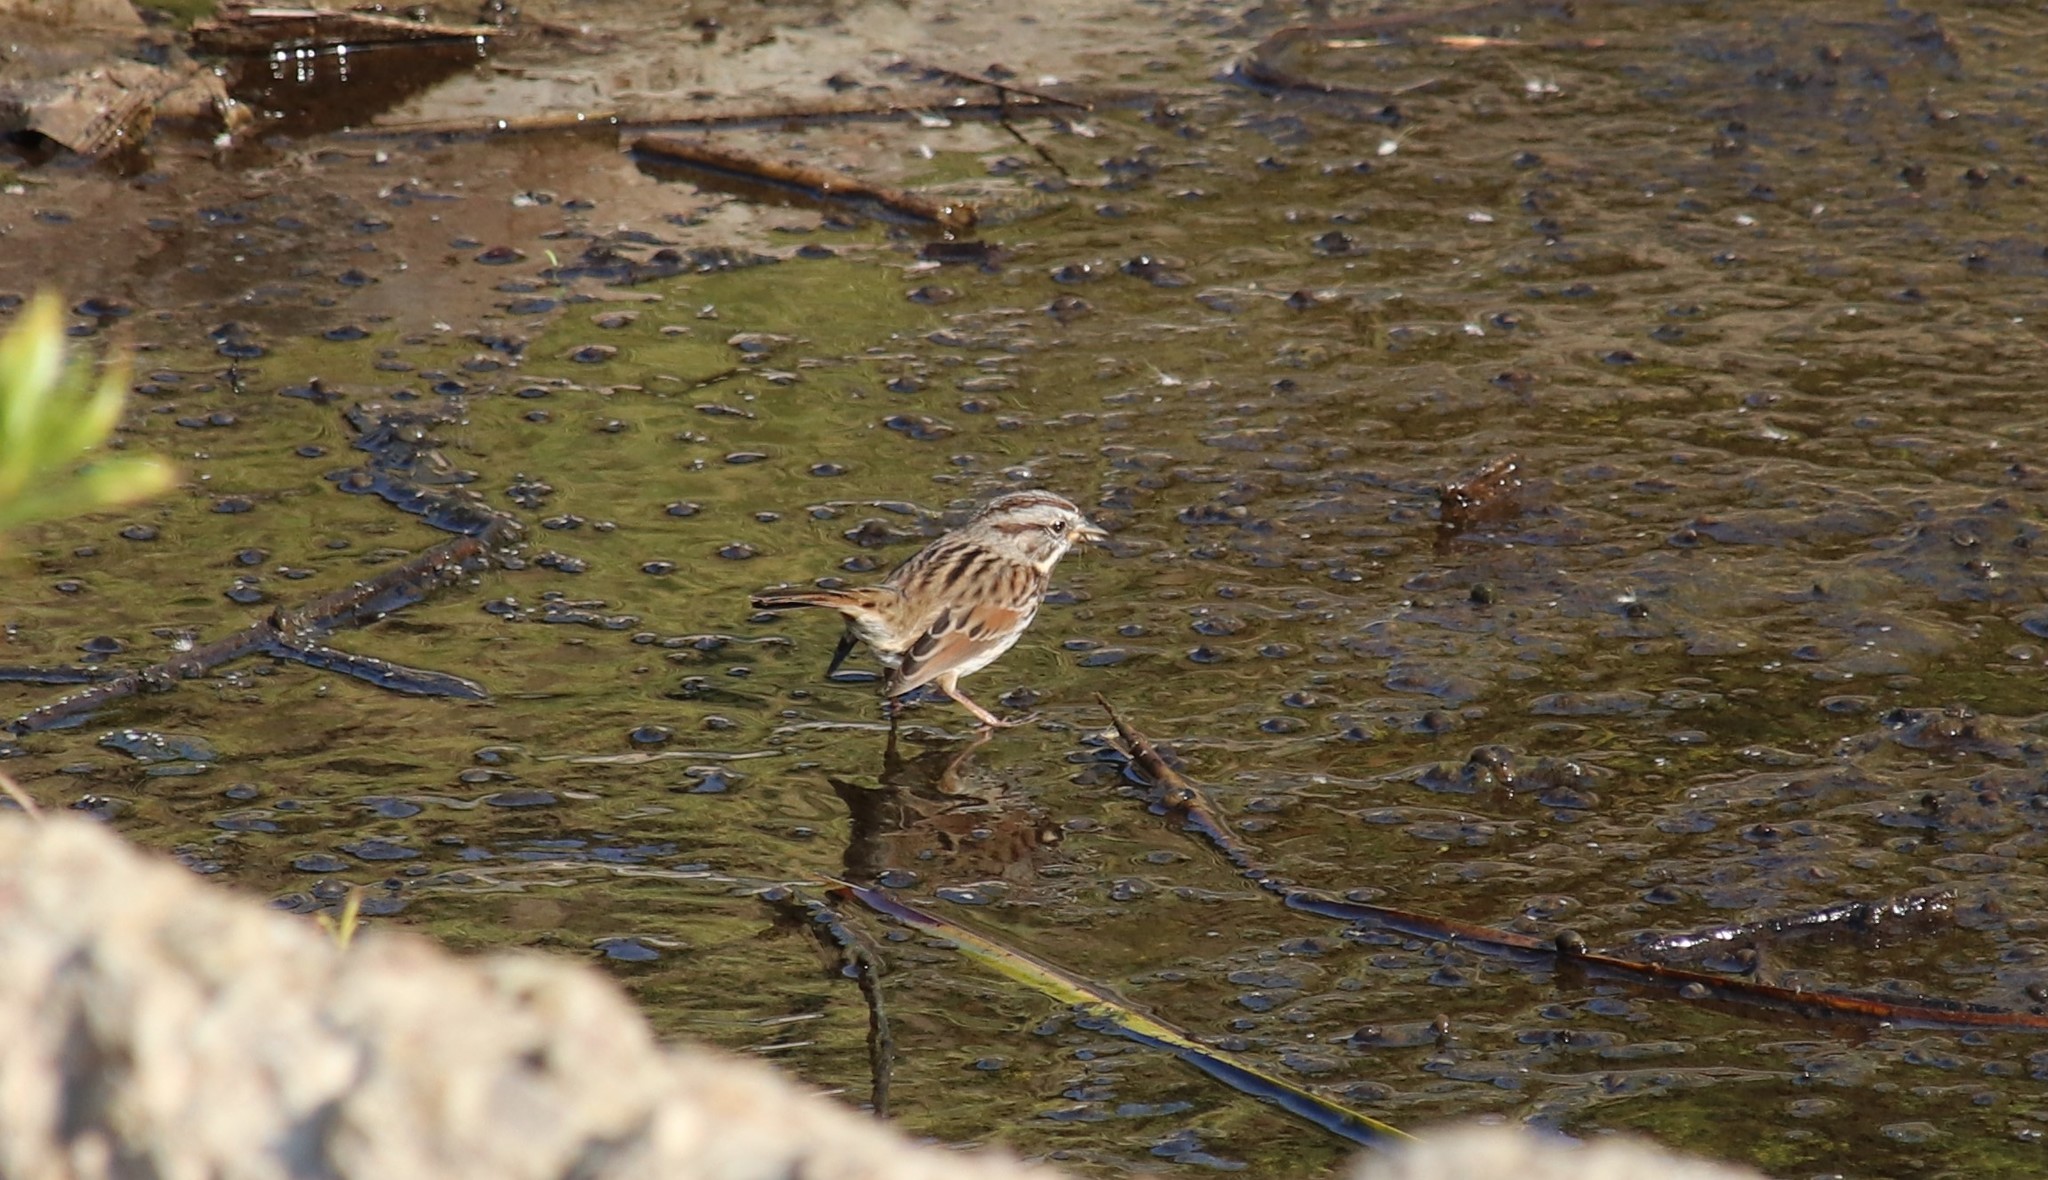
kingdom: Animalia
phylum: Chordata
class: Aves
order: Passeriformes
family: Passerellidae
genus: Melospiza
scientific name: Melospiza melodia
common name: Song sparrow
